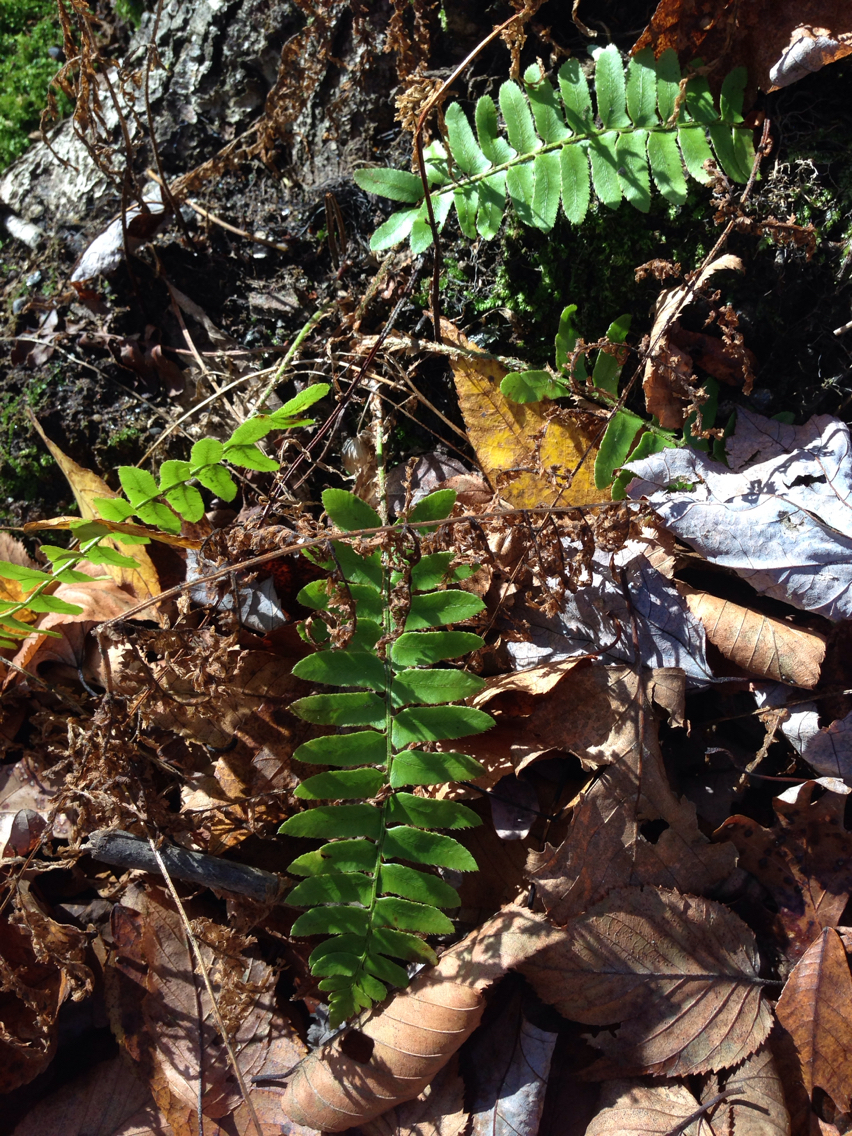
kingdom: Plantae
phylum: Tracheophyta
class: Polypodiopsida
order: Polypodiales
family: Dryopteridaceae
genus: Polystichum
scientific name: Polystichum acrostichoides
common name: Christmas fern
